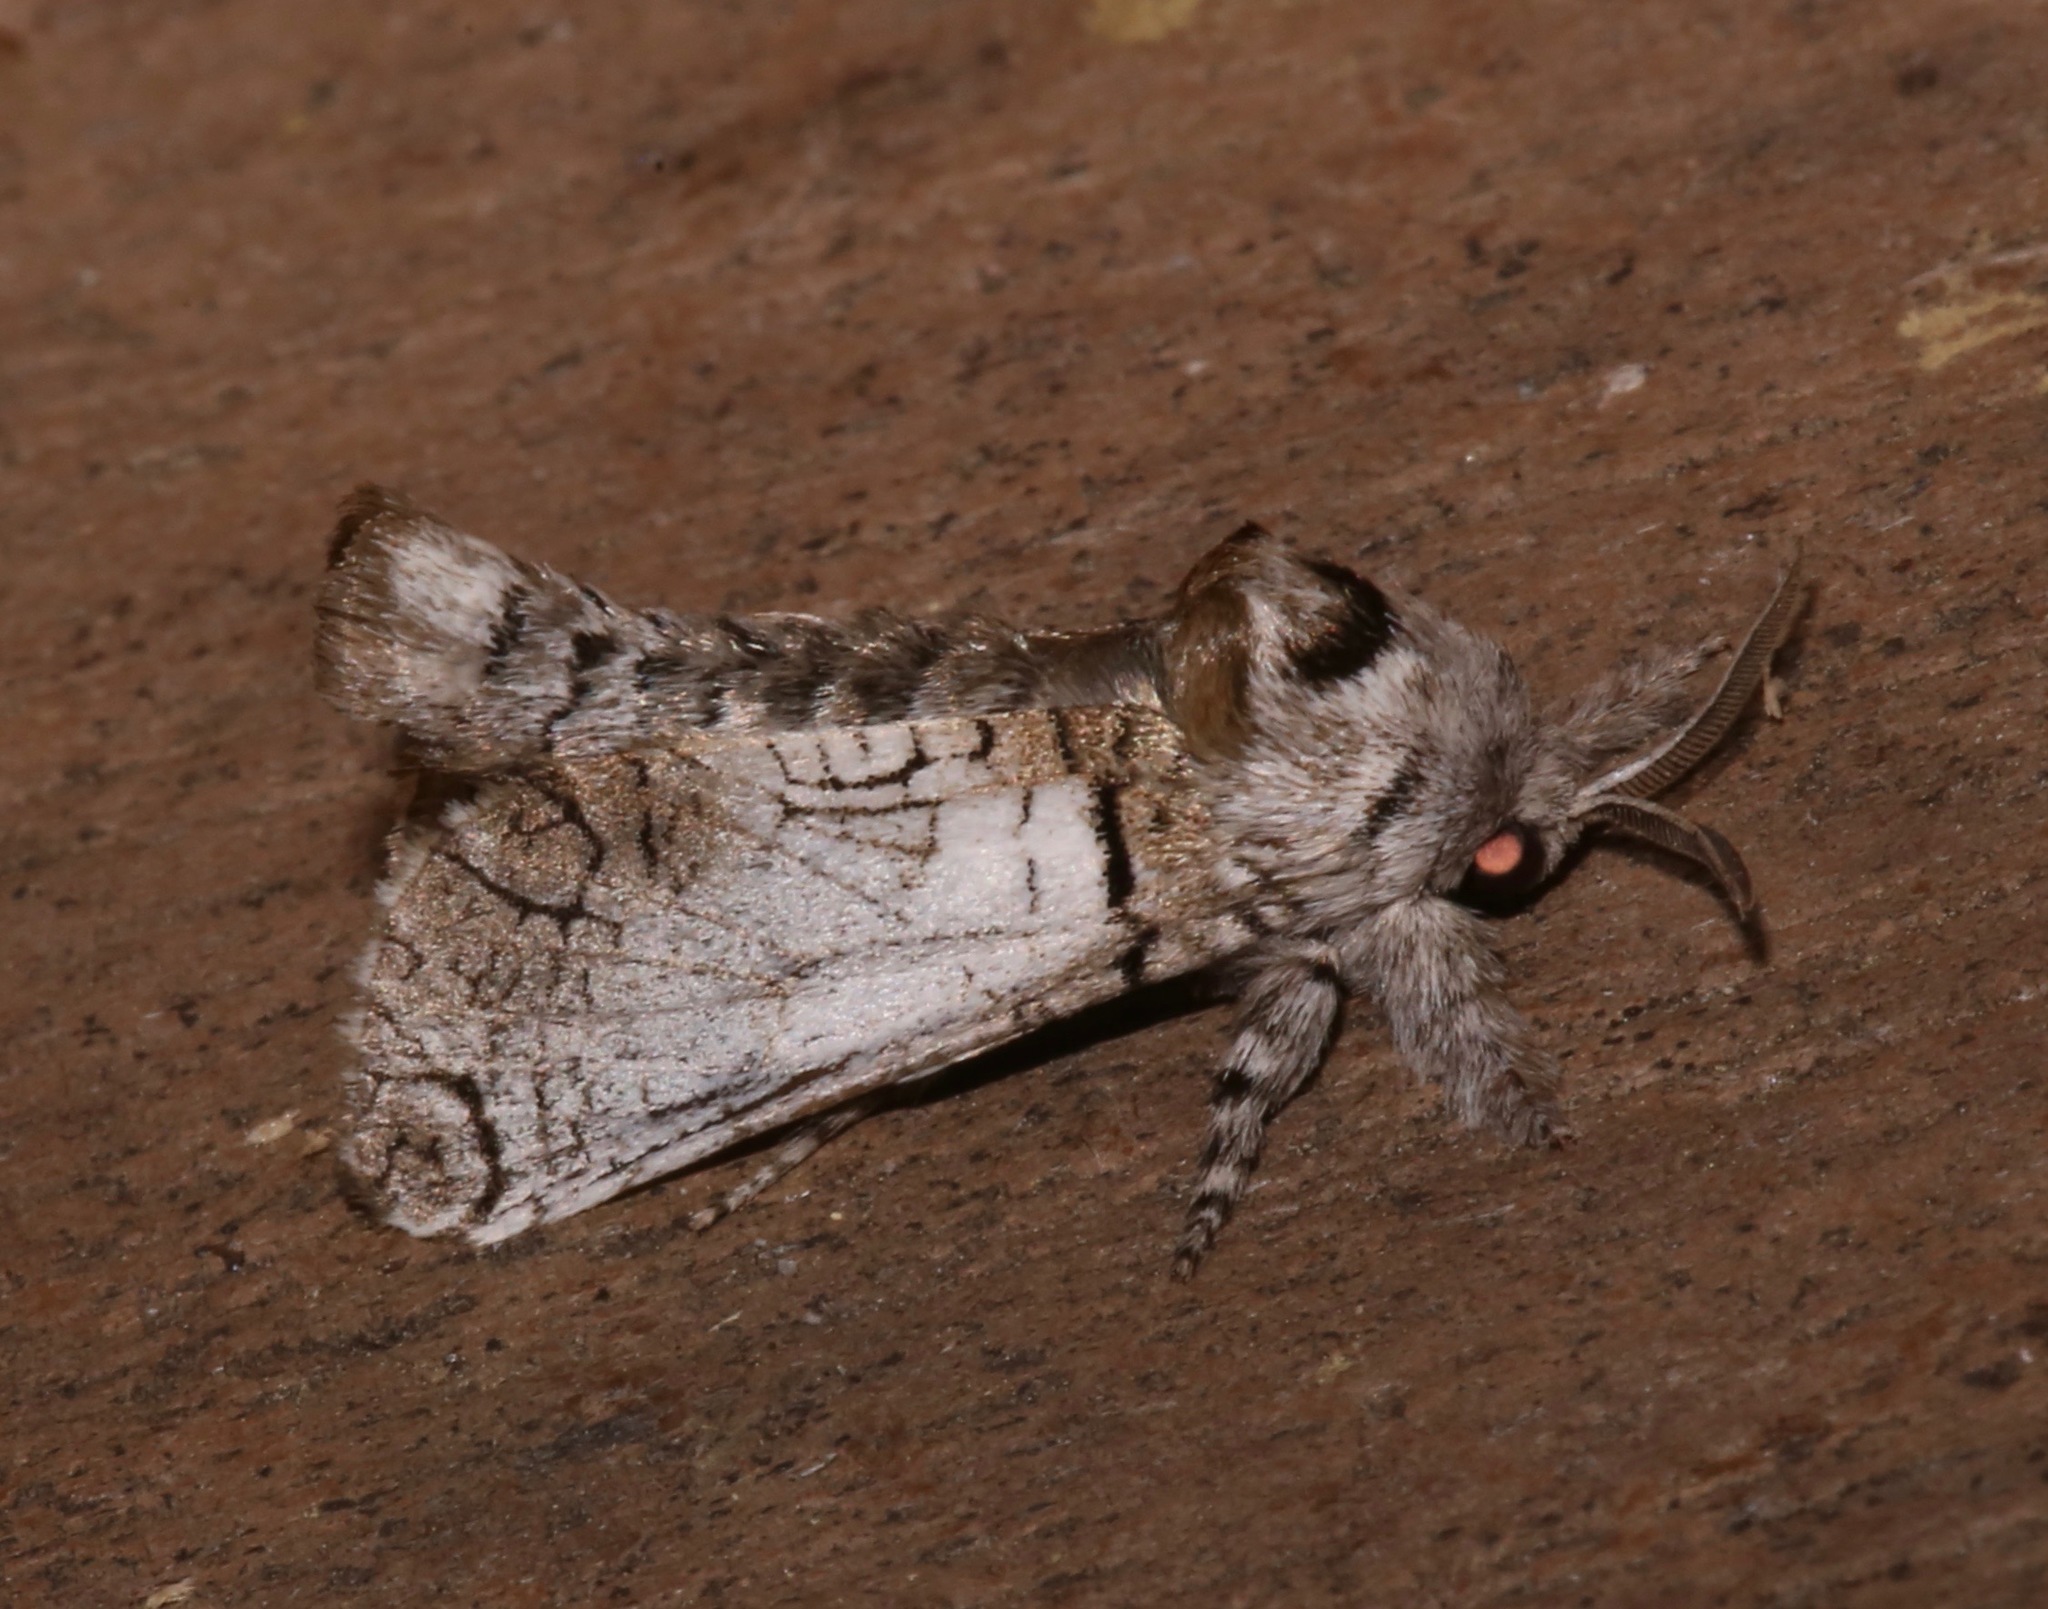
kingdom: Animalia
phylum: Arthropoda
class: Insecta
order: Lepidoptera
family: Cossidae
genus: Inguromorpha
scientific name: Inguromorpha basalis
